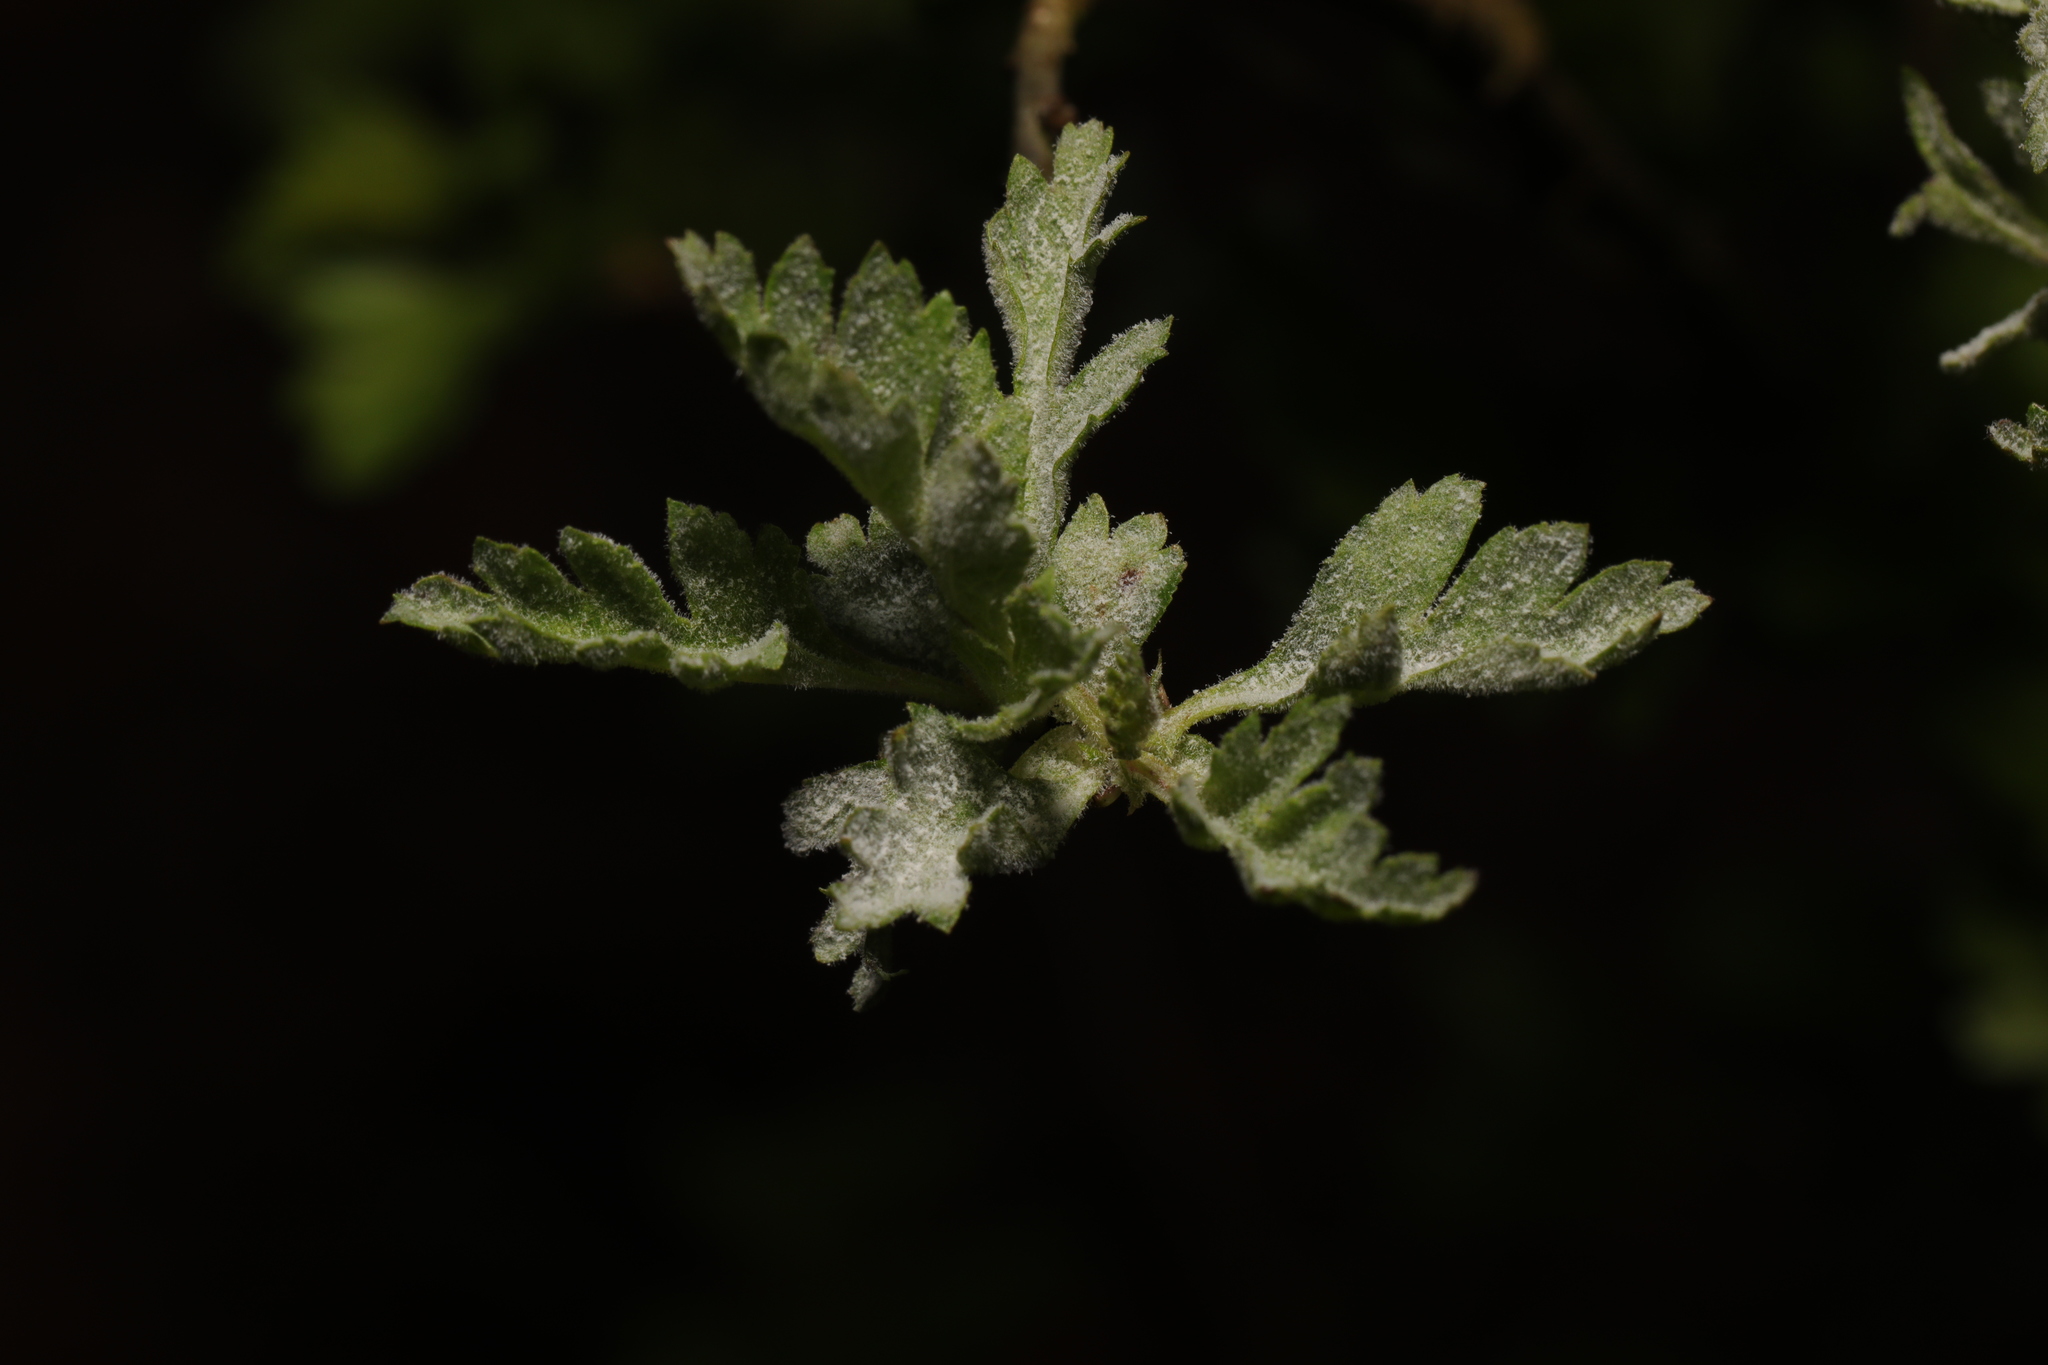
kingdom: Fungi
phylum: Ascomycota
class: Leotiomycetes
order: Helotiales
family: Erysiphaceae
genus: Podosphaera
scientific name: Podosphaera clandestina
